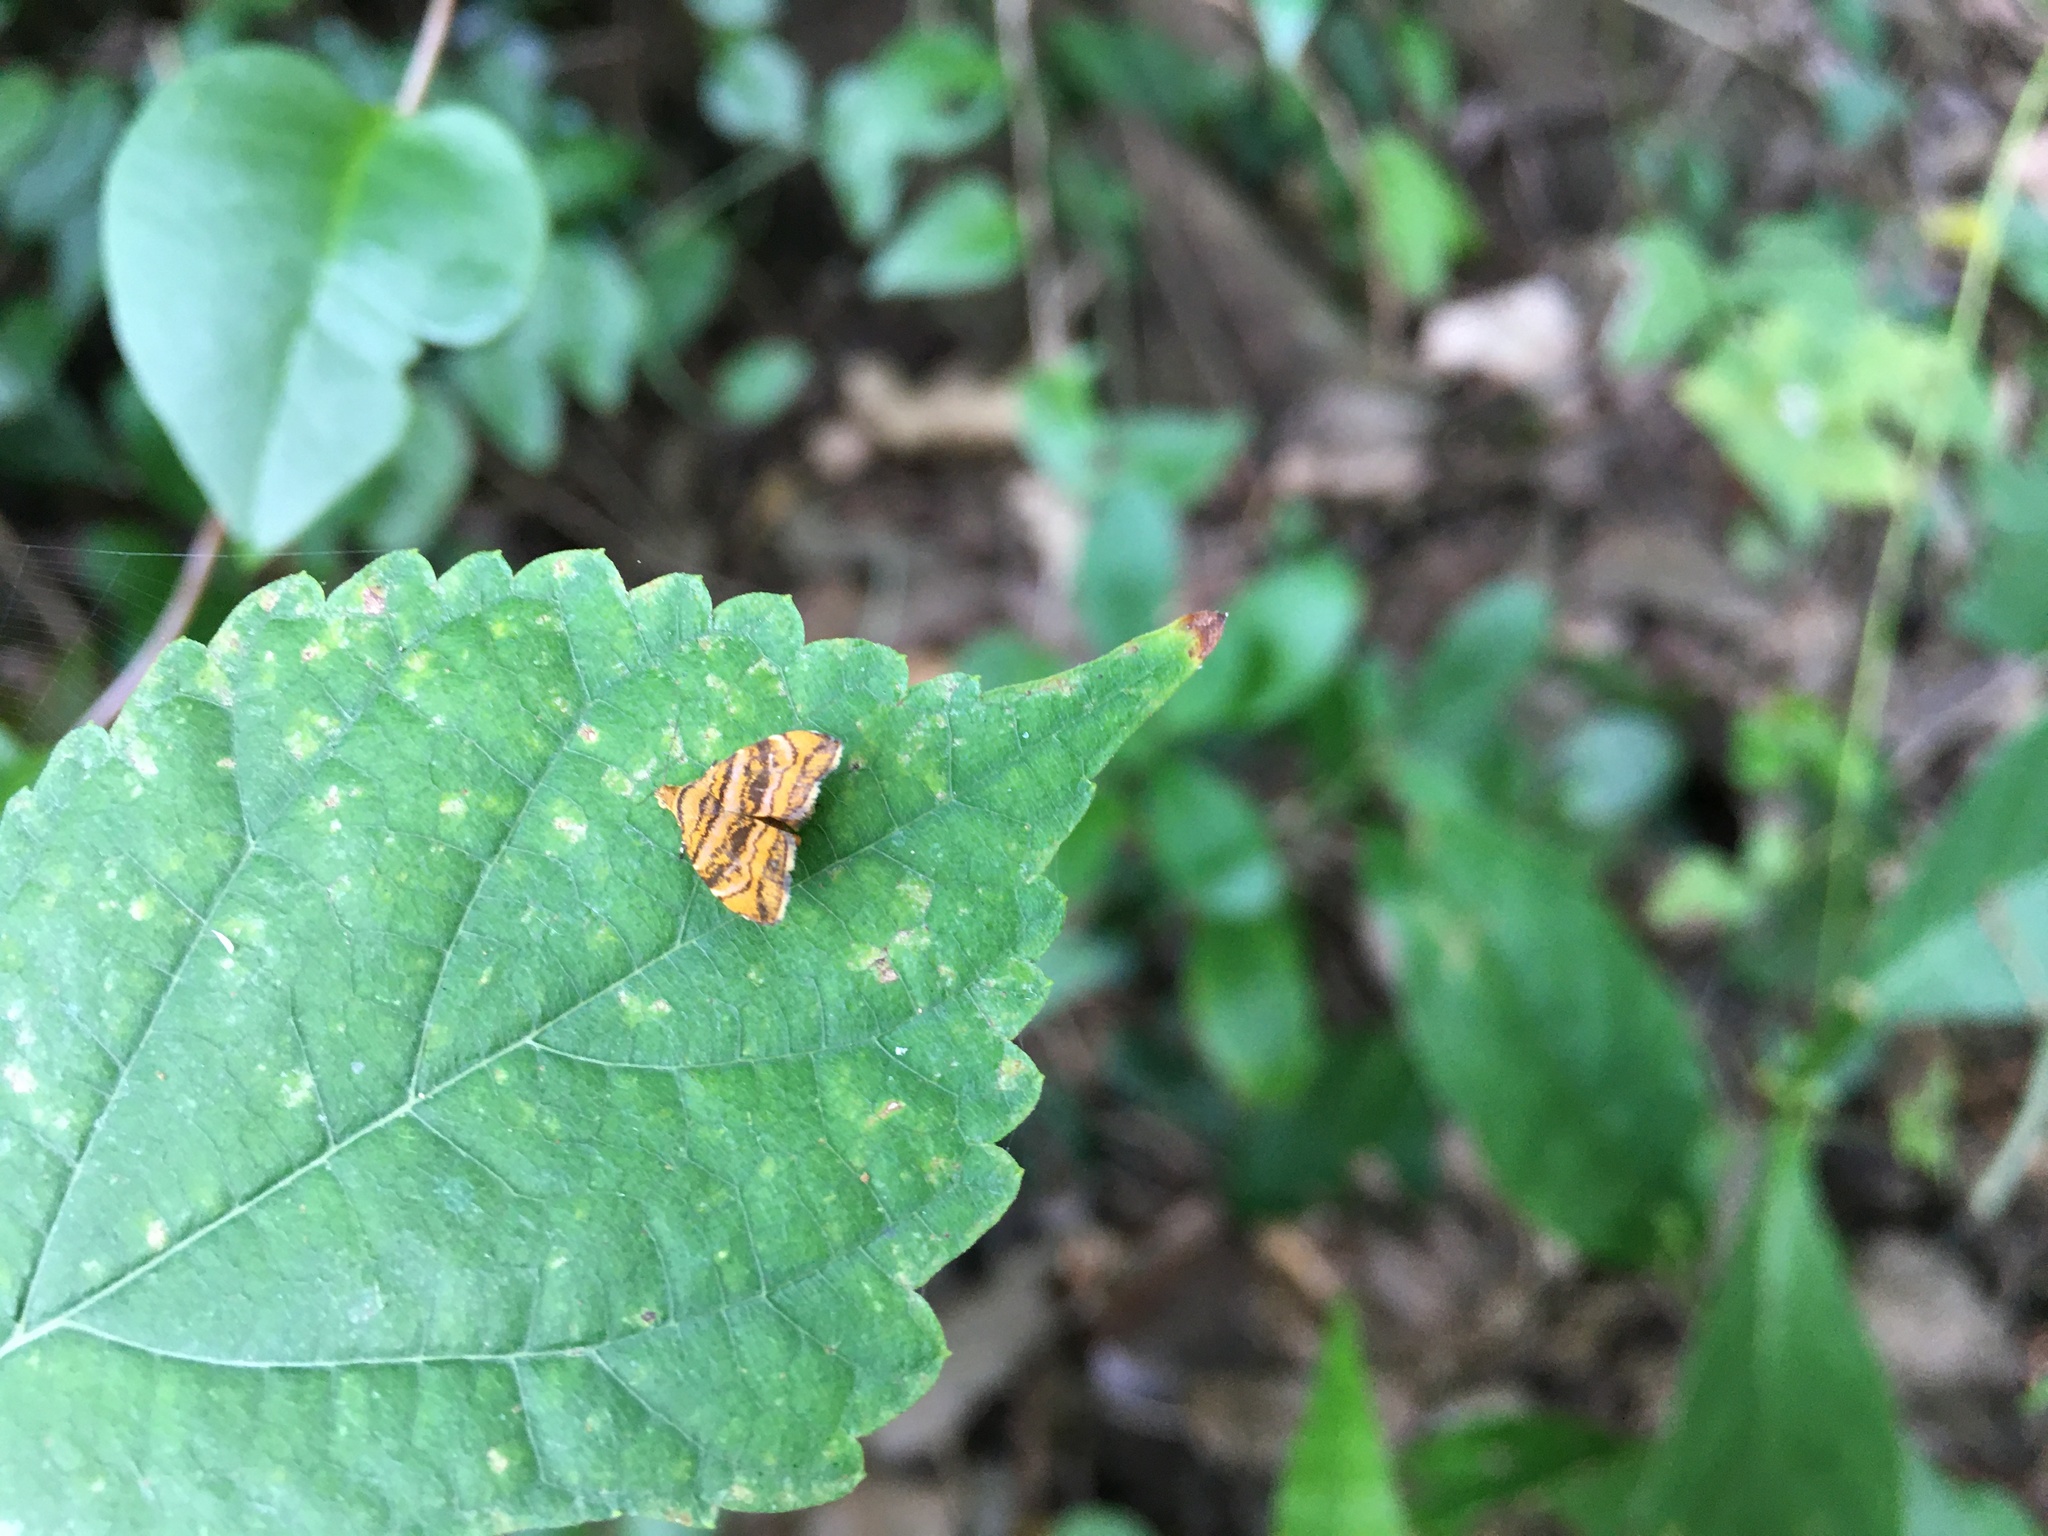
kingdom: Animalia
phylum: Arthropoda
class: Insecta
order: Lepidoptera
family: Choreutidae
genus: Anthophila
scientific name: Anthophila amethystodes
